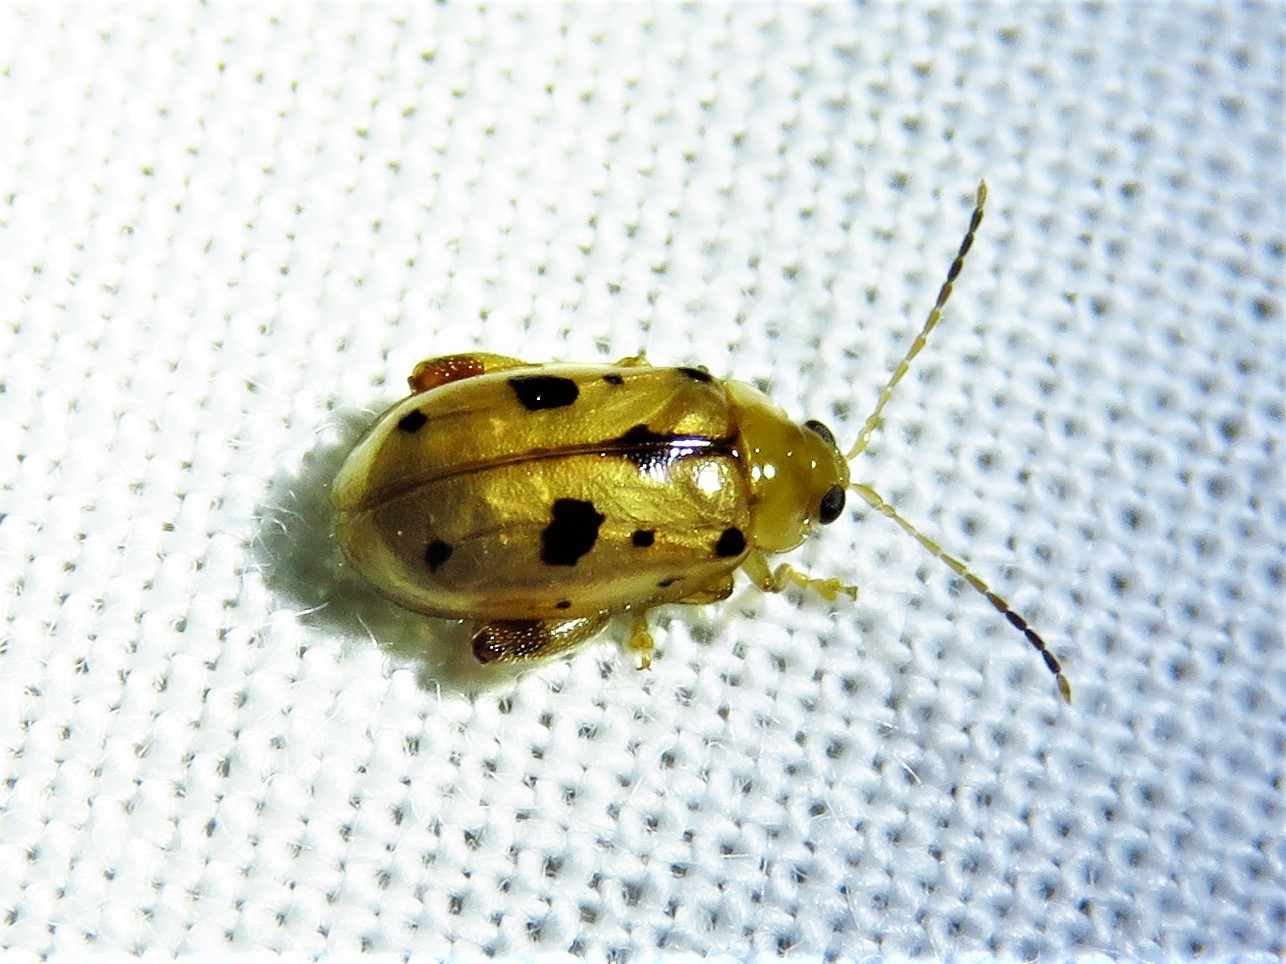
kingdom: Animalia
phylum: Arthropoda
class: Insecta
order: Coleoptera
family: Chrysomelidae
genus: Capraita
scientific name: Capraita nigrosignata
